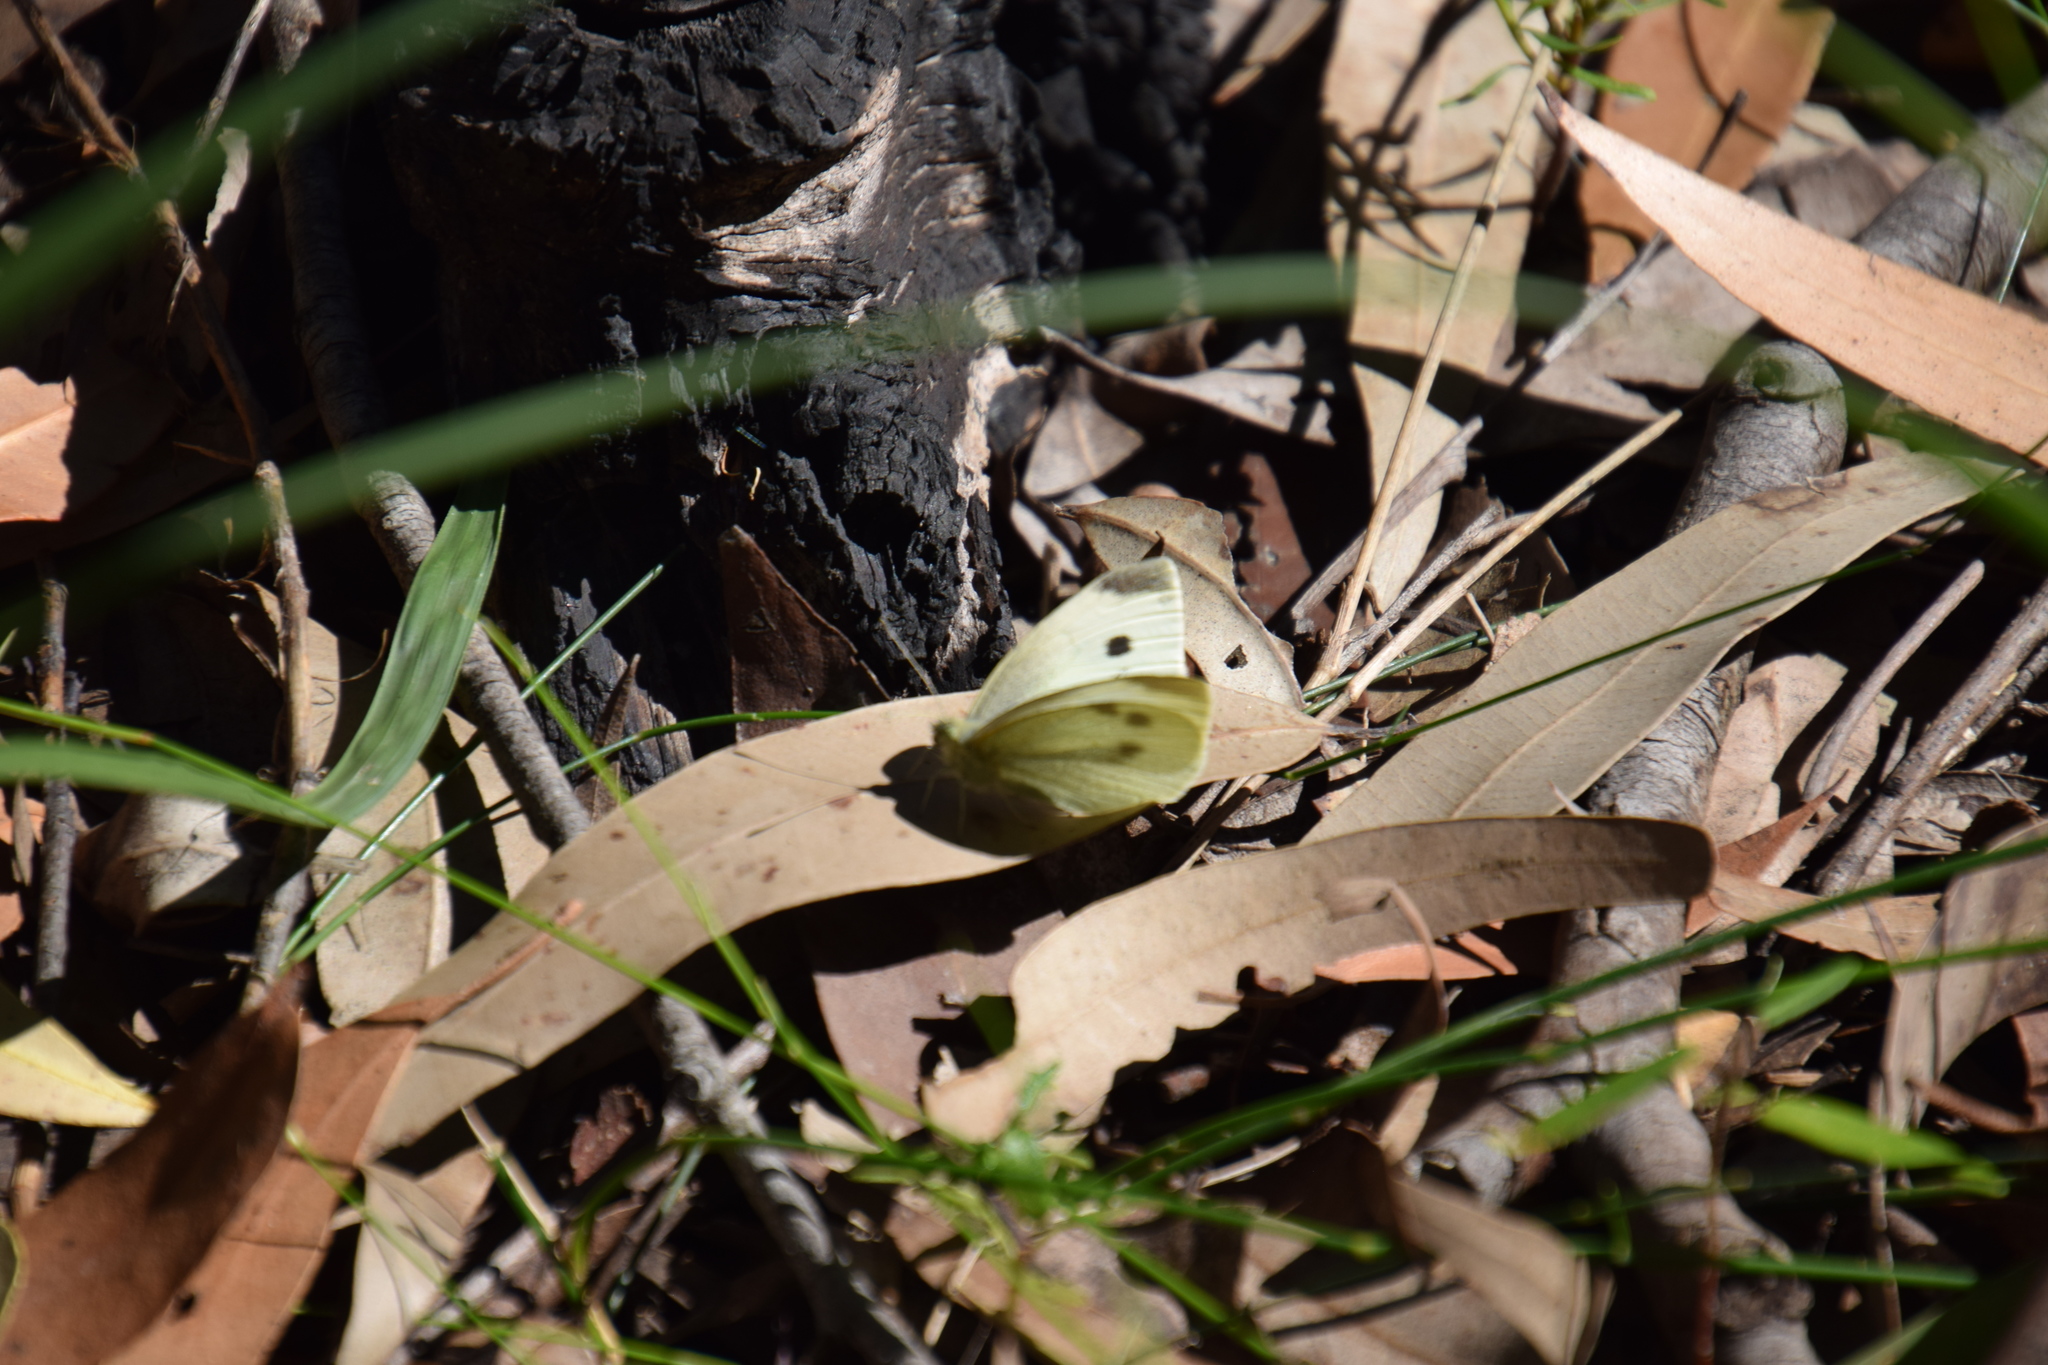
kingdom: Animalia
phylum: Arthropoda
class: Insecta
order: Lepidoptera
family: Pieridae
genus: Pieris
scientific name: Pieris rapae
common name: Small white
